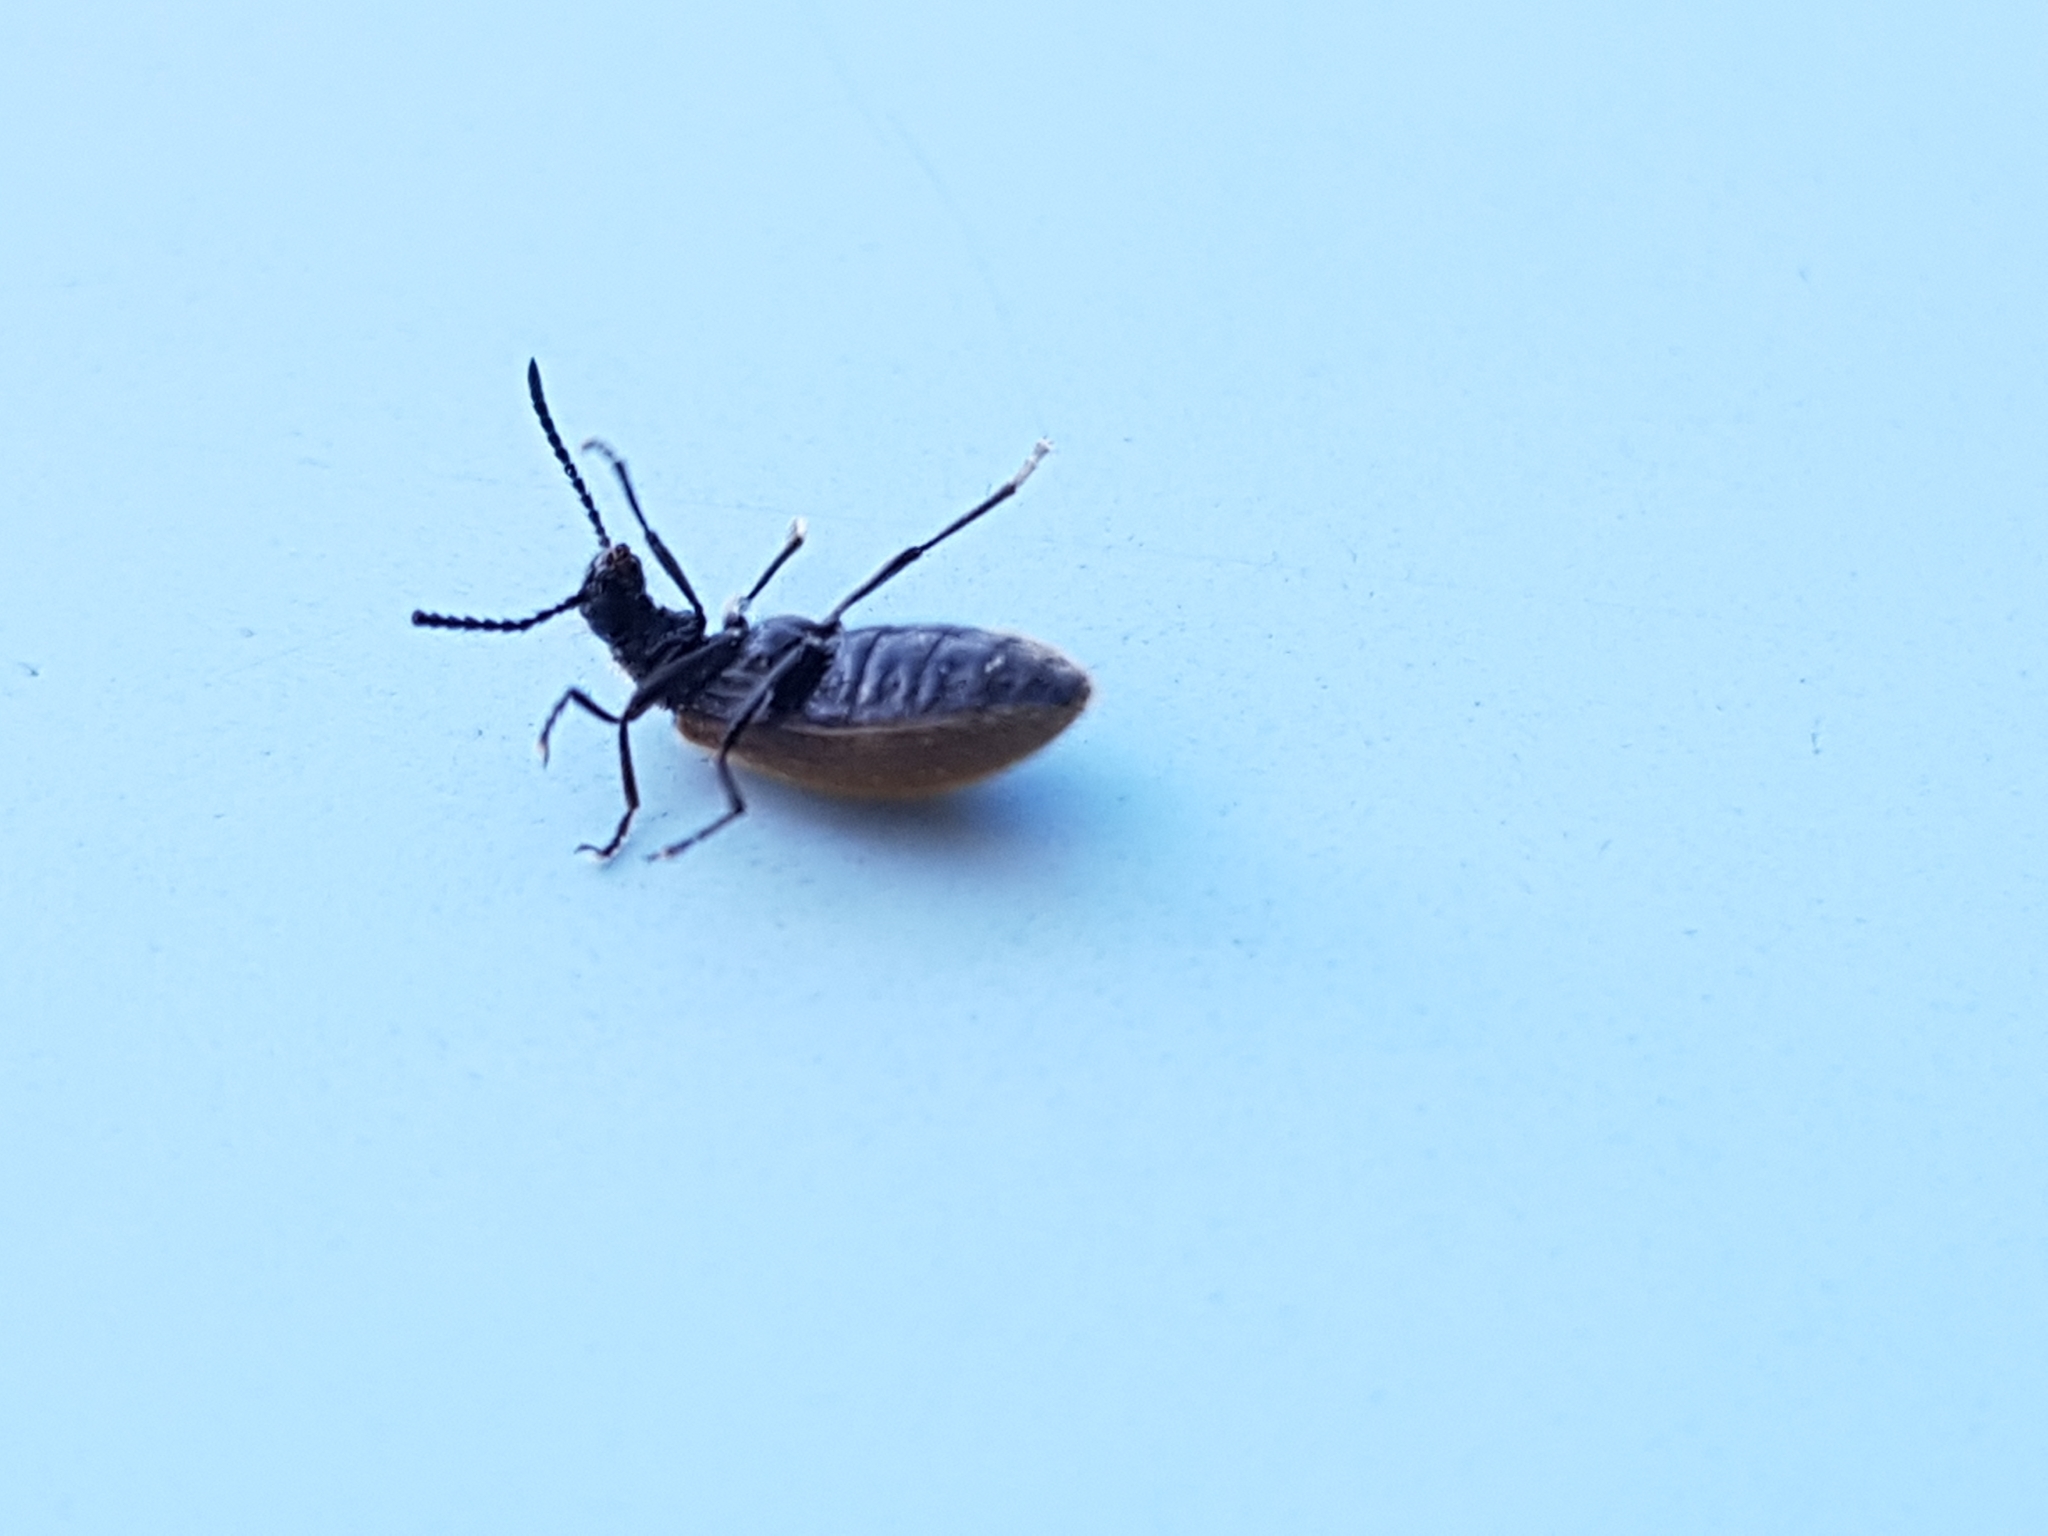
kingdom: Animalia
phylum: Arthropoda
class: Insecta
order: Coleoptera
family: Tenebrionidae
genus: Lagria
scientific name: Lagria hirta
